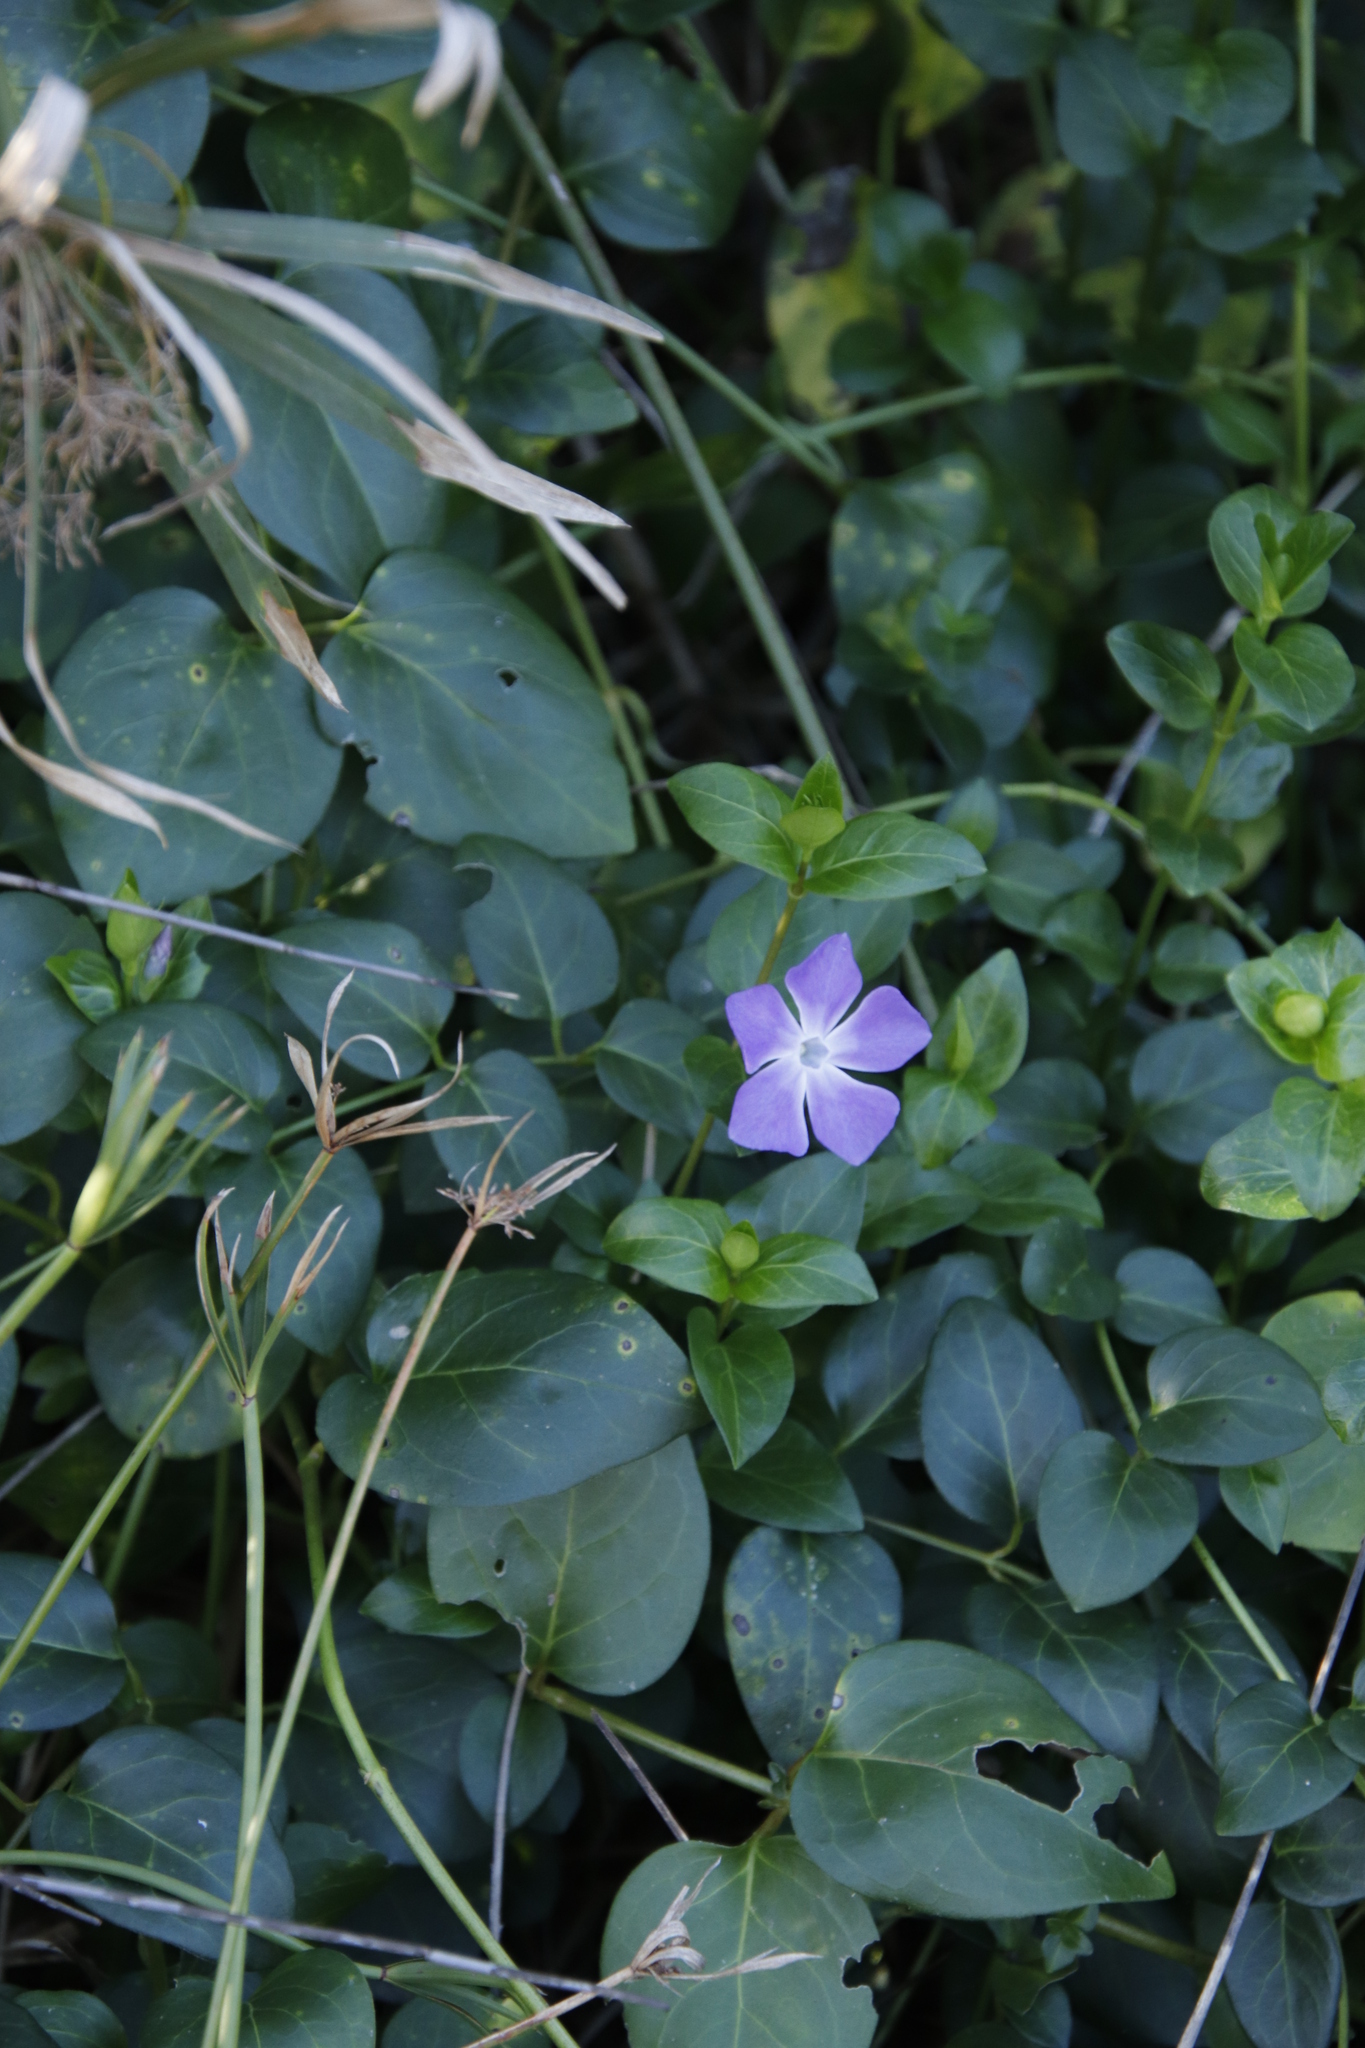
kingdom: Plantae
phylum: Tracheophyta
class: Magnoliopsida
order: Gentianales
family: Apocynaceae
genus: Vinca
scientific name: Vinca major
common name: Greater periwinkle
